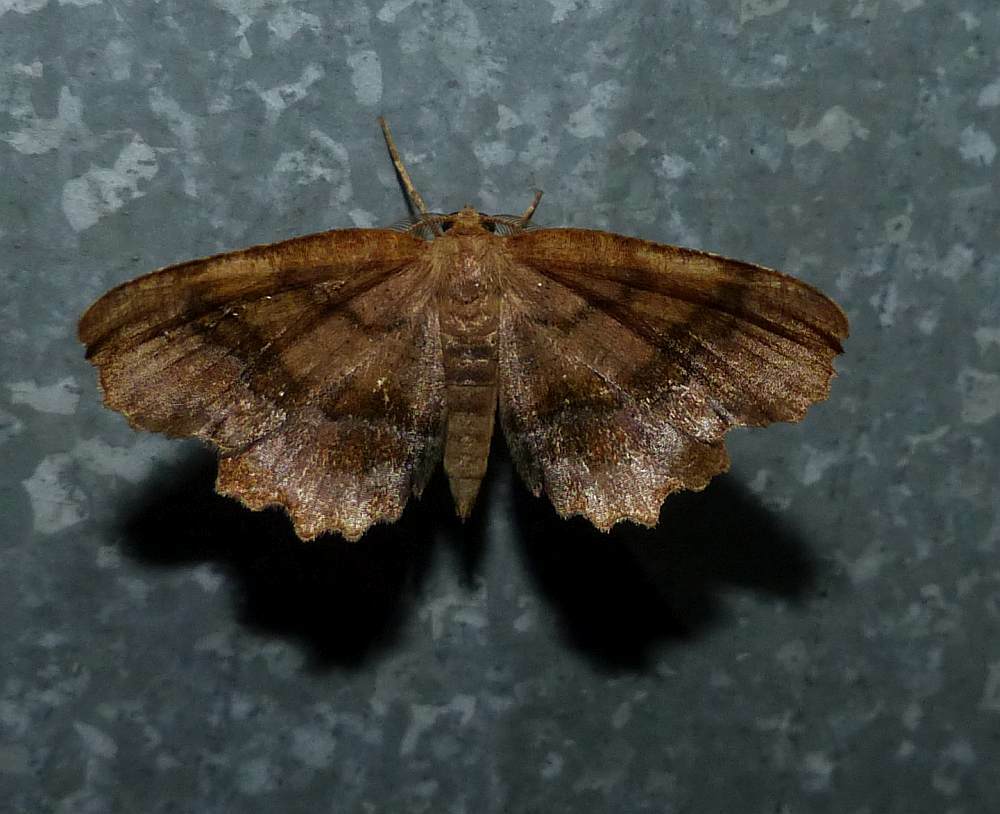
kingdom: Animalia
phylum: Arthropoda
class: Insecta
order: Lepidoptera
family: Geometridae
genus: Cepphis
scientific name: Cepphis armataria
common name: Scallop moth
